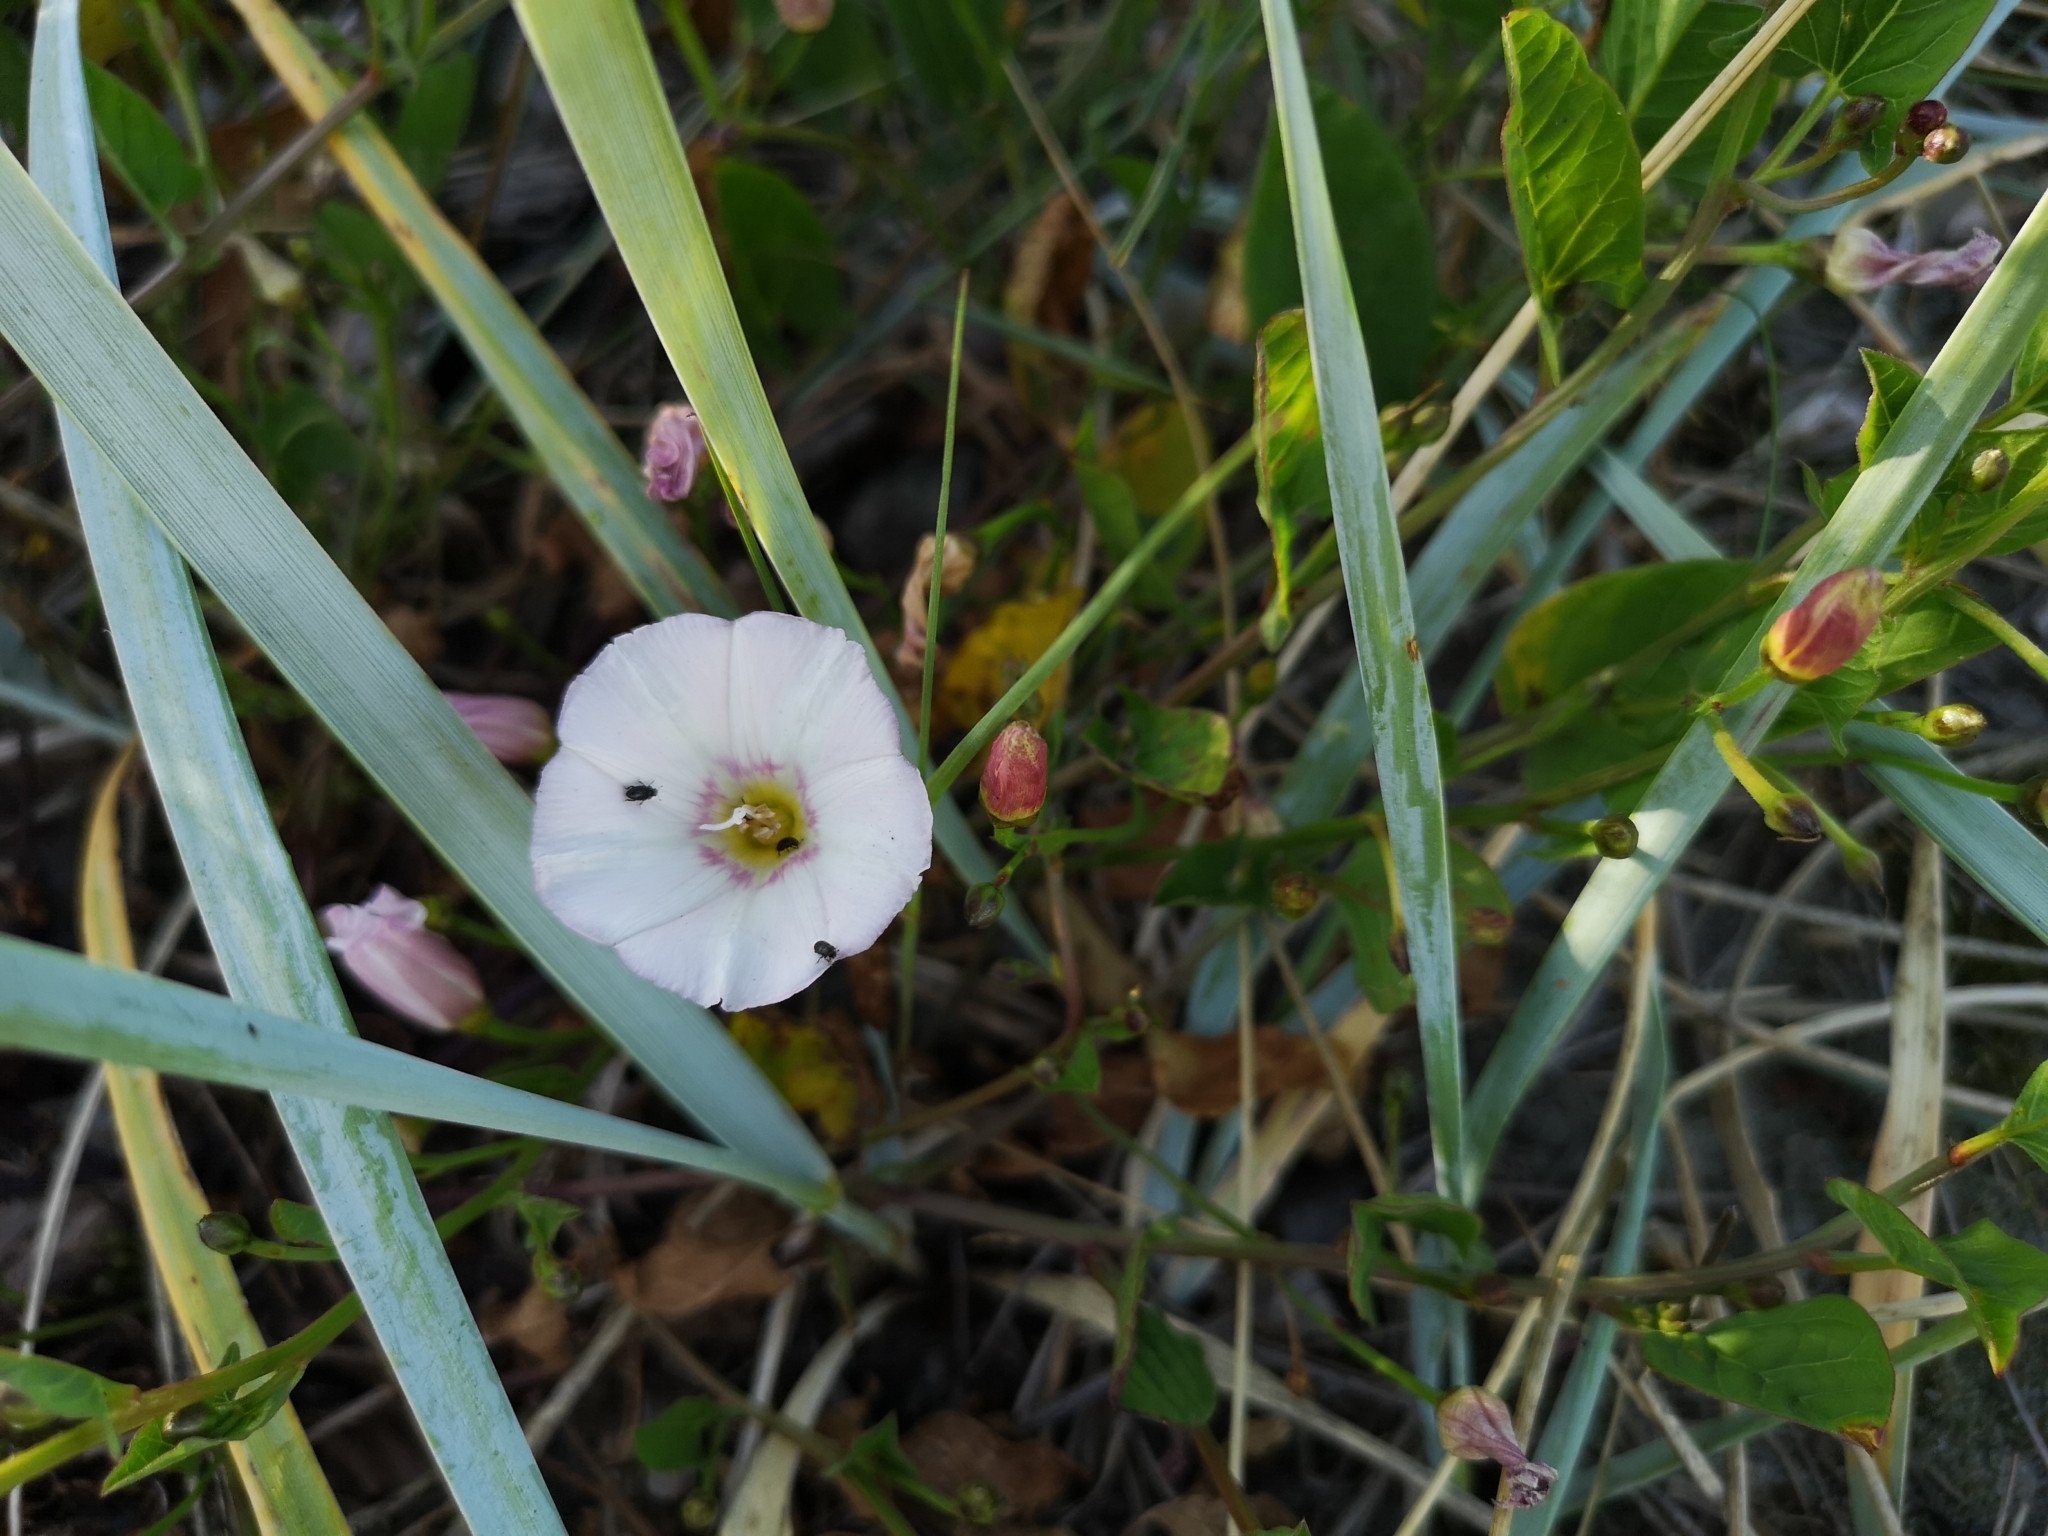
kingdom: Plantae
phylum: Tracheophyta
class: Magnoliopsida
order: Solanales
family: Convolvulaceae
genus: Convolvulus
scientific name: Convolvulus arvensis
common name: Field bindweed
